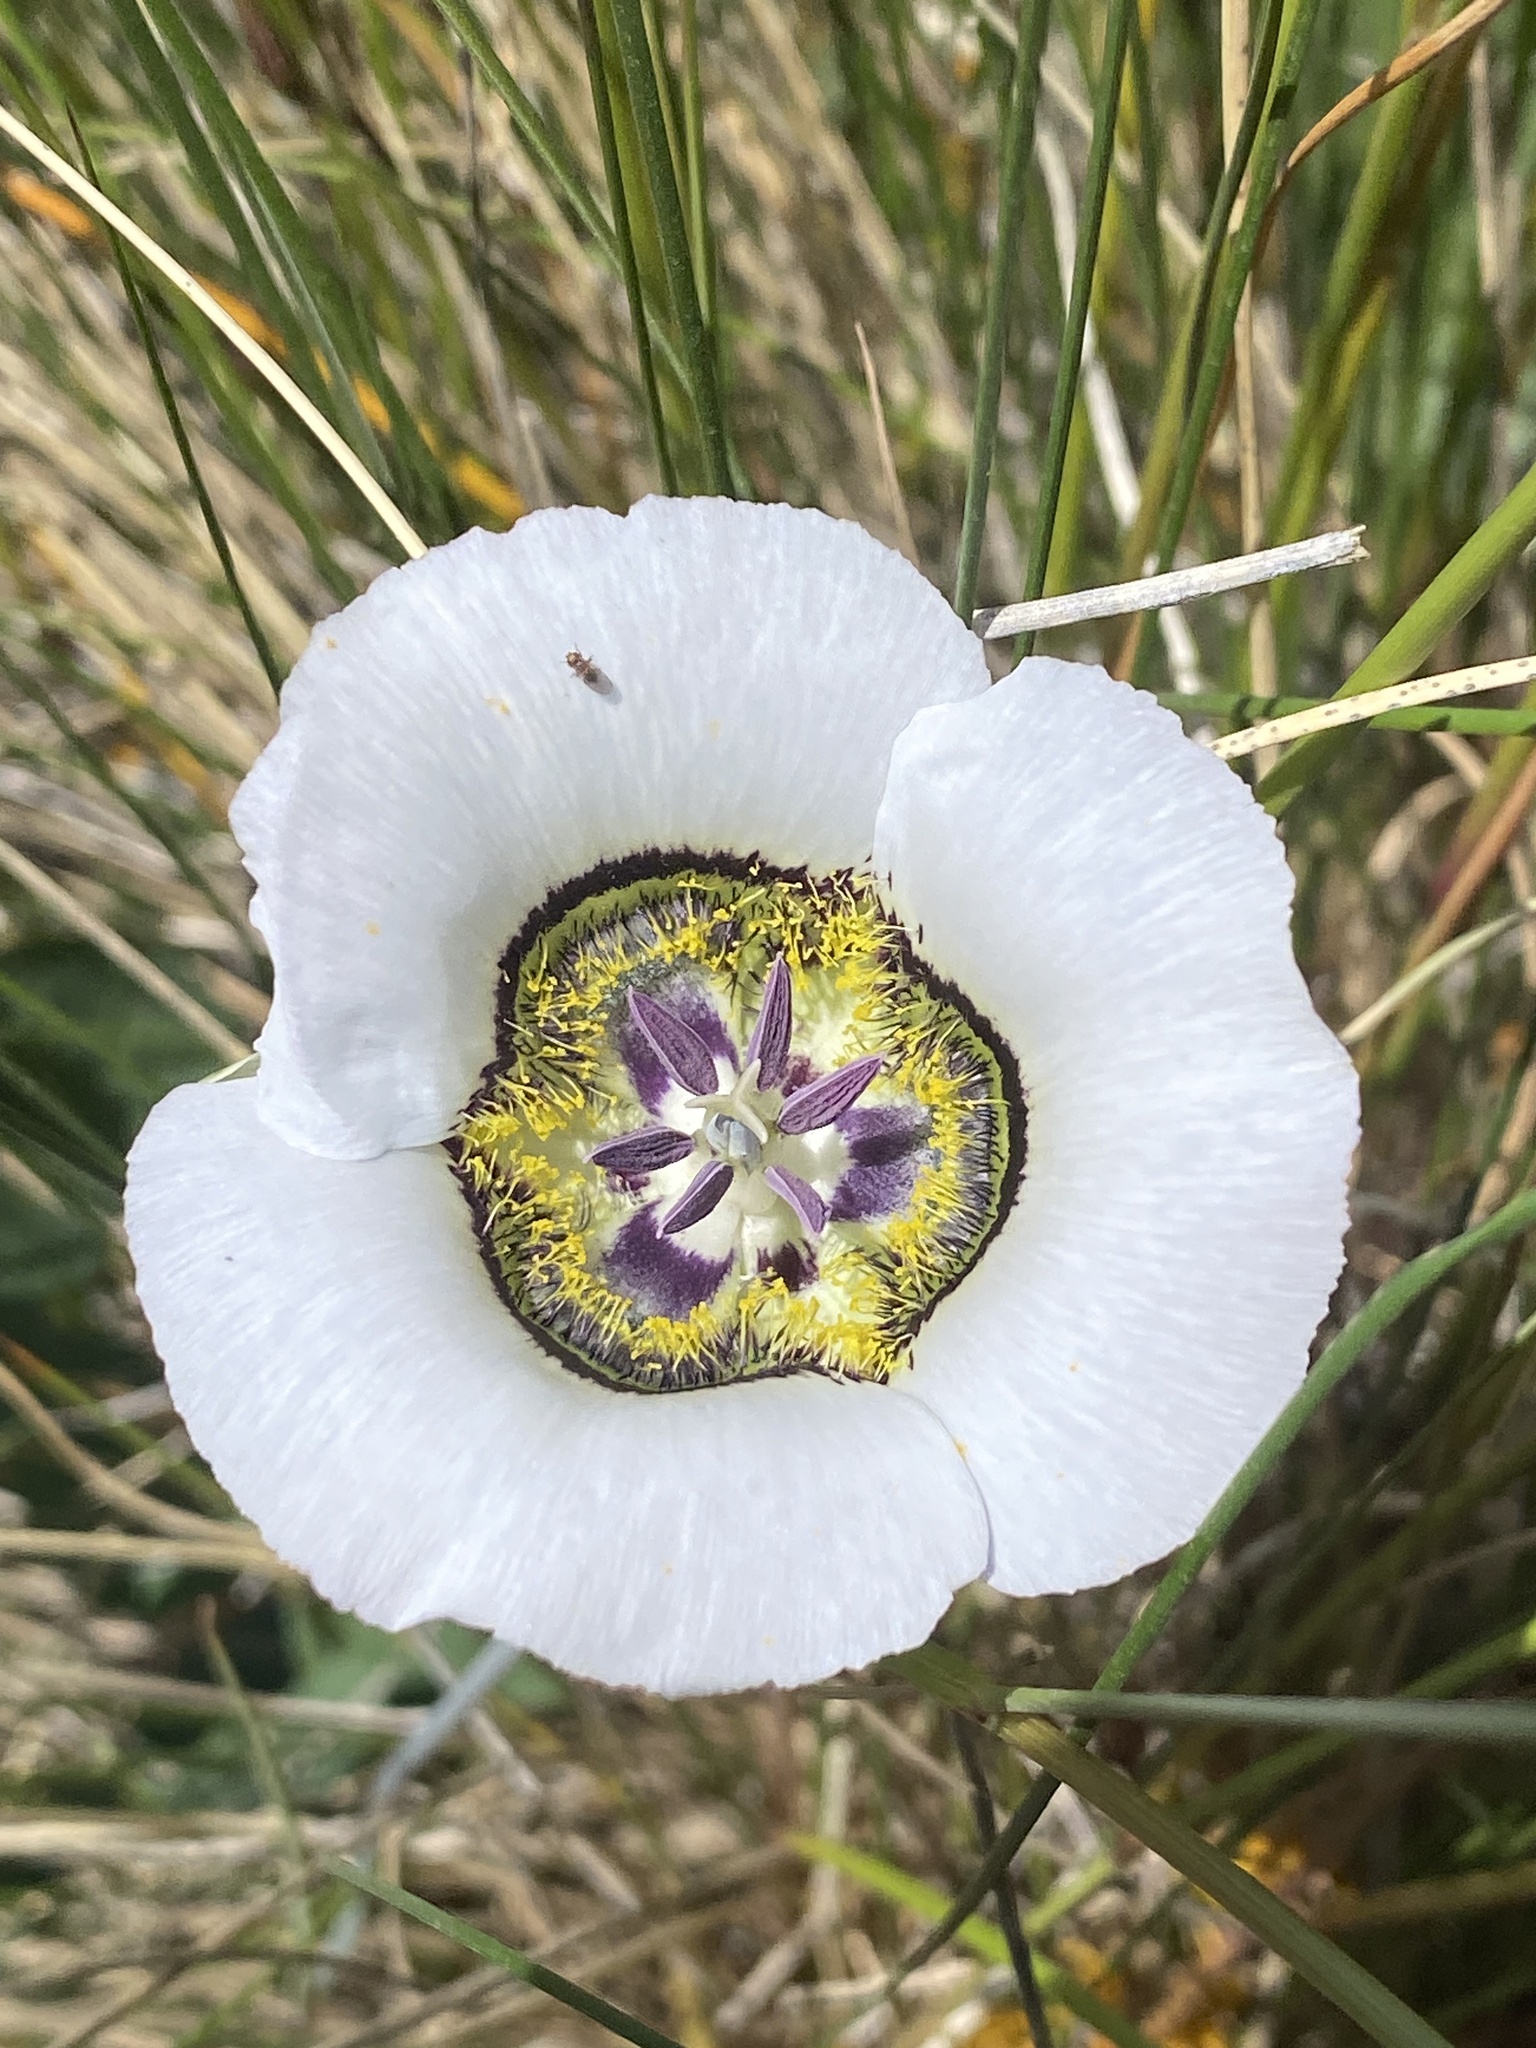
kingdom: Plantae
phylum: Tracheophyta
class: Liliopsida
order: Liliales
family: Liliaceae
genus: Calochortus
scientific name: Calochortus gunnisonii
